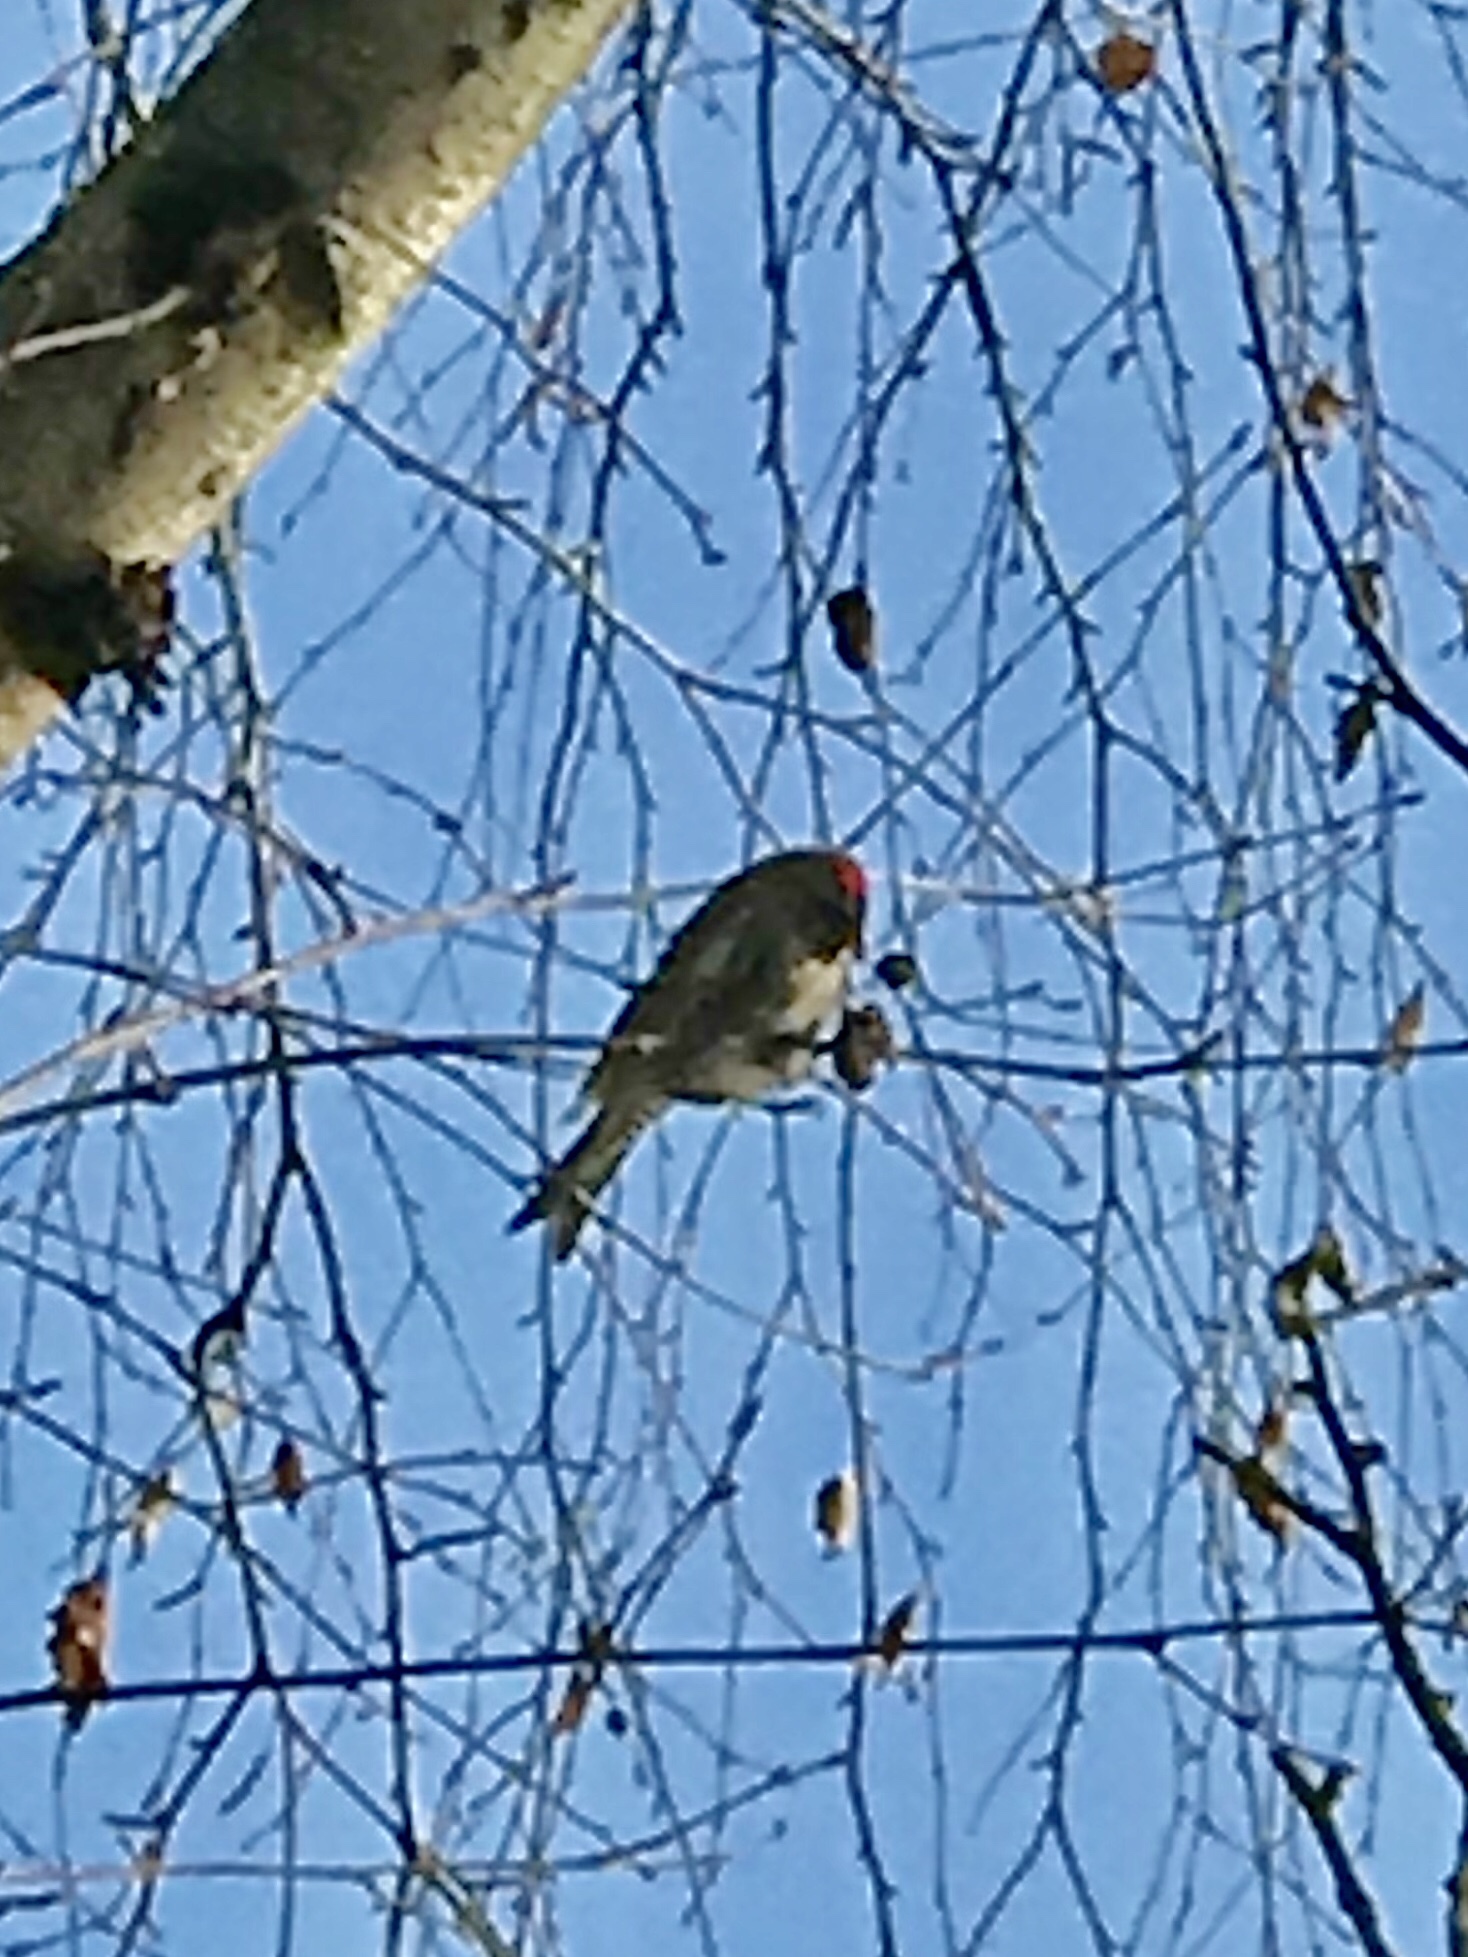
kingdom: Animalia
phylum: Chordata
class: Aves
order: Passeriformes
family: Fringillidae
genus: Acanthis
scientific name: Acanthis flammea
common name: Common redpoll
